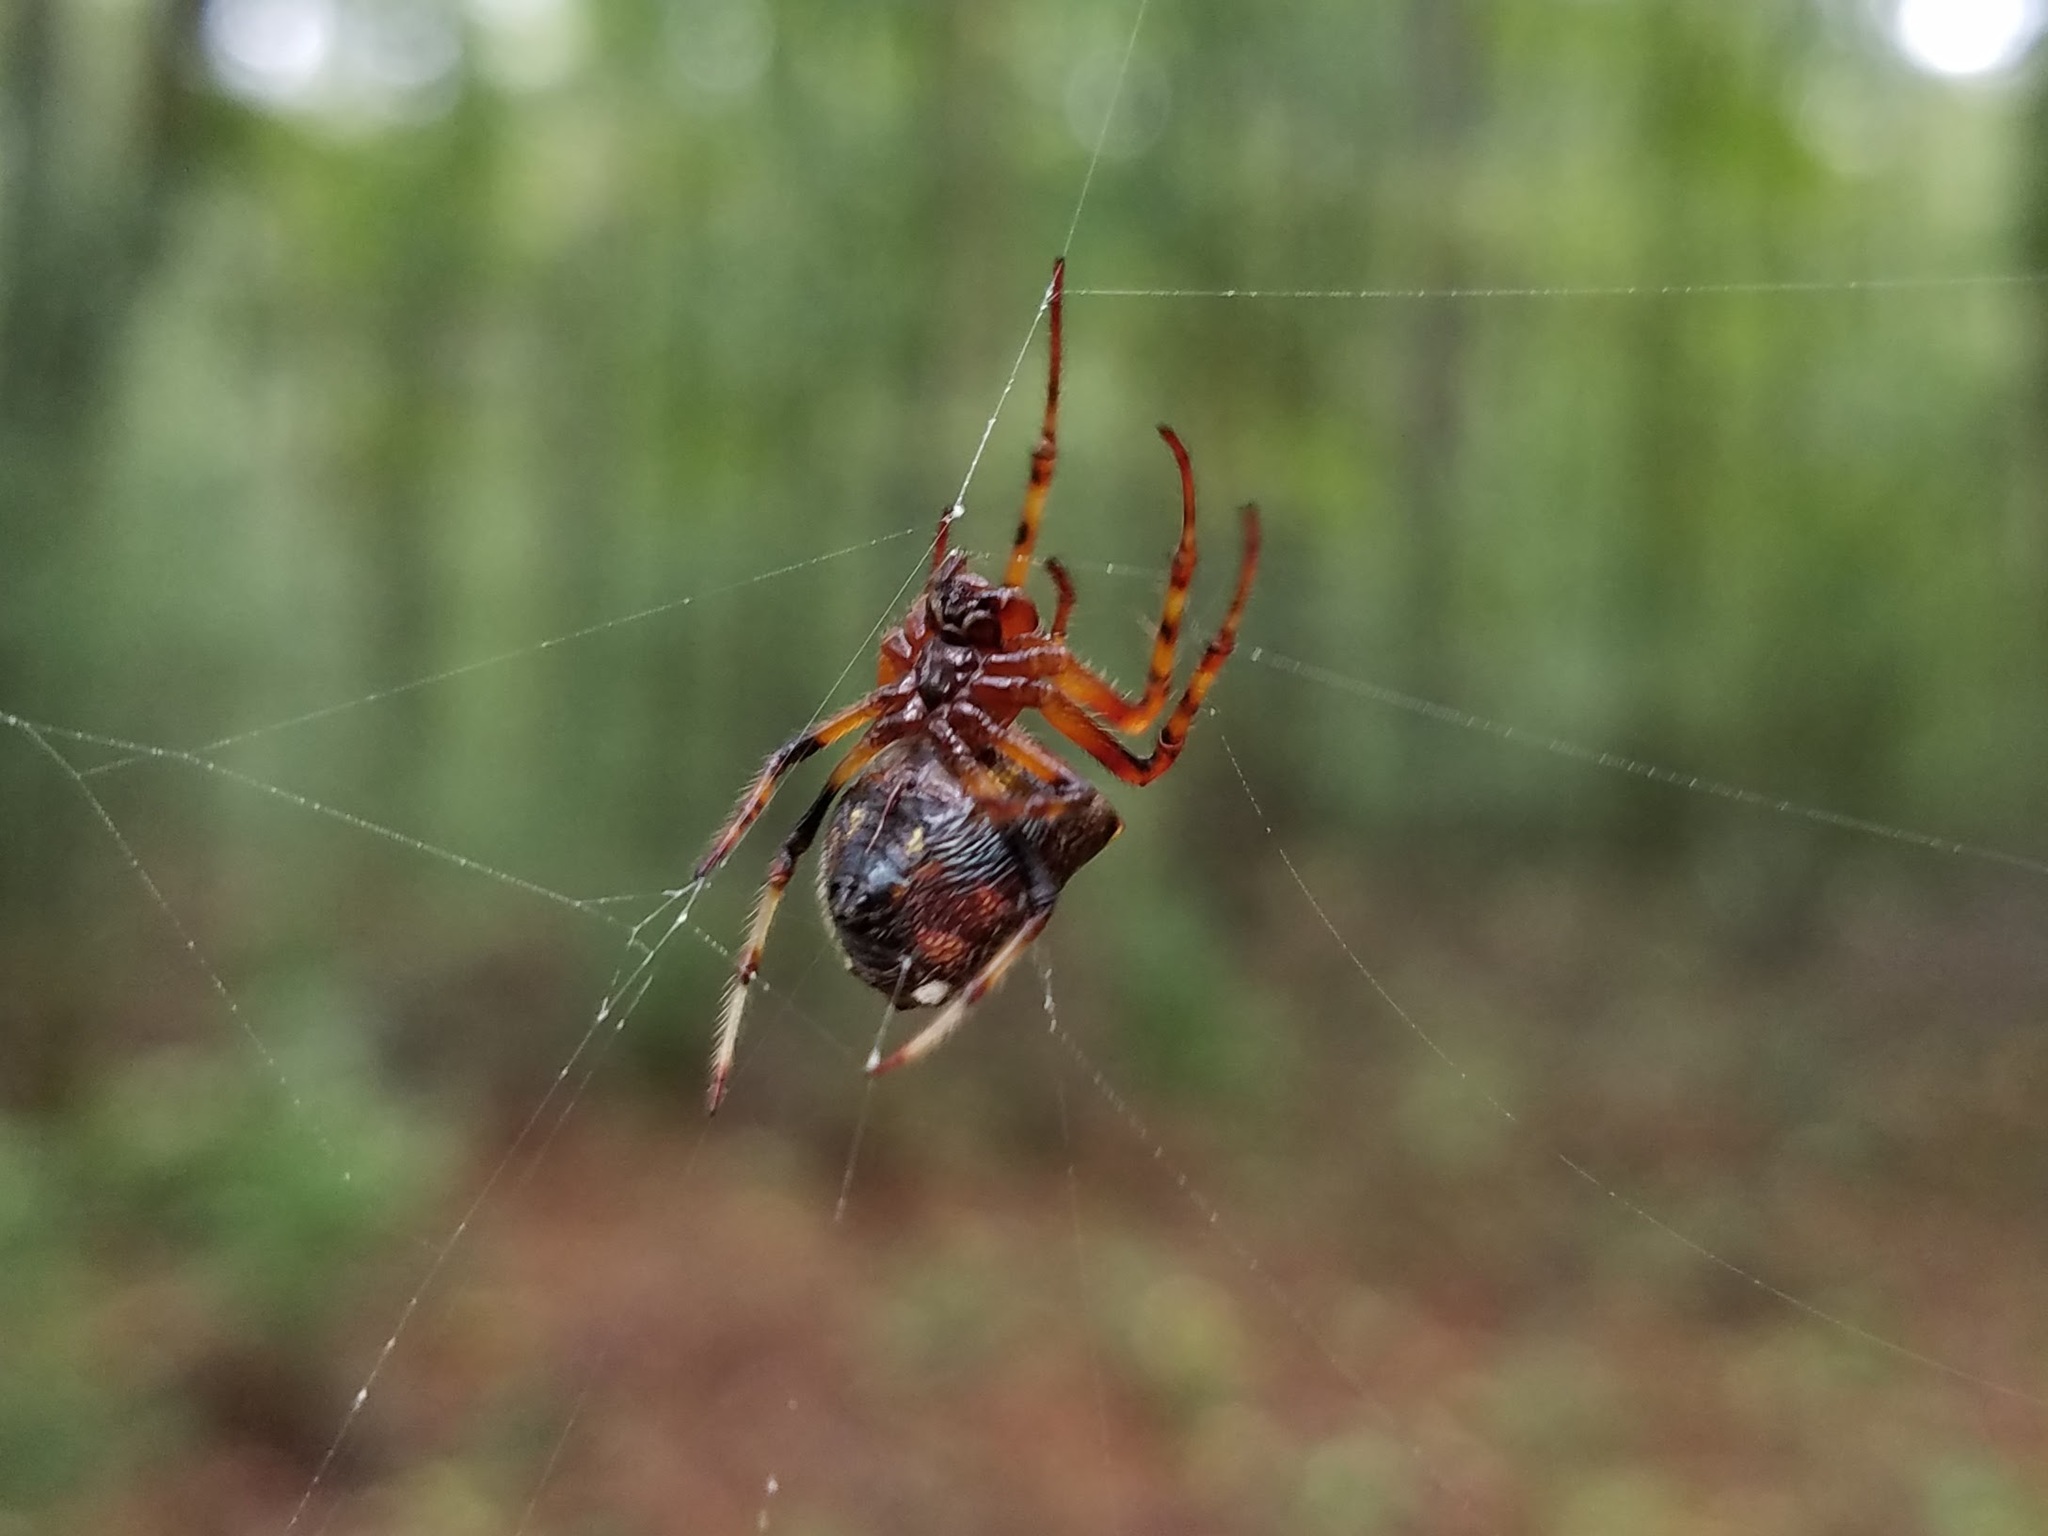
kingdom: Animalia
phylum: Arthropoda
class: Arachnida
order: Araneae
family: Araneidae
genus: Verrucosa
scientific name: Verrucosa arenata
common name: Orb weavers
